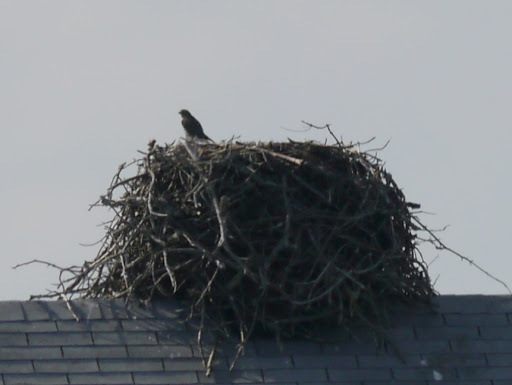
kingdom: Animalia
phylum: Chordata
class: Aves
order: Falconiformes
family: Falconidae
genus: Falco
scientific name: Falco columbarius
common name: Merlin
